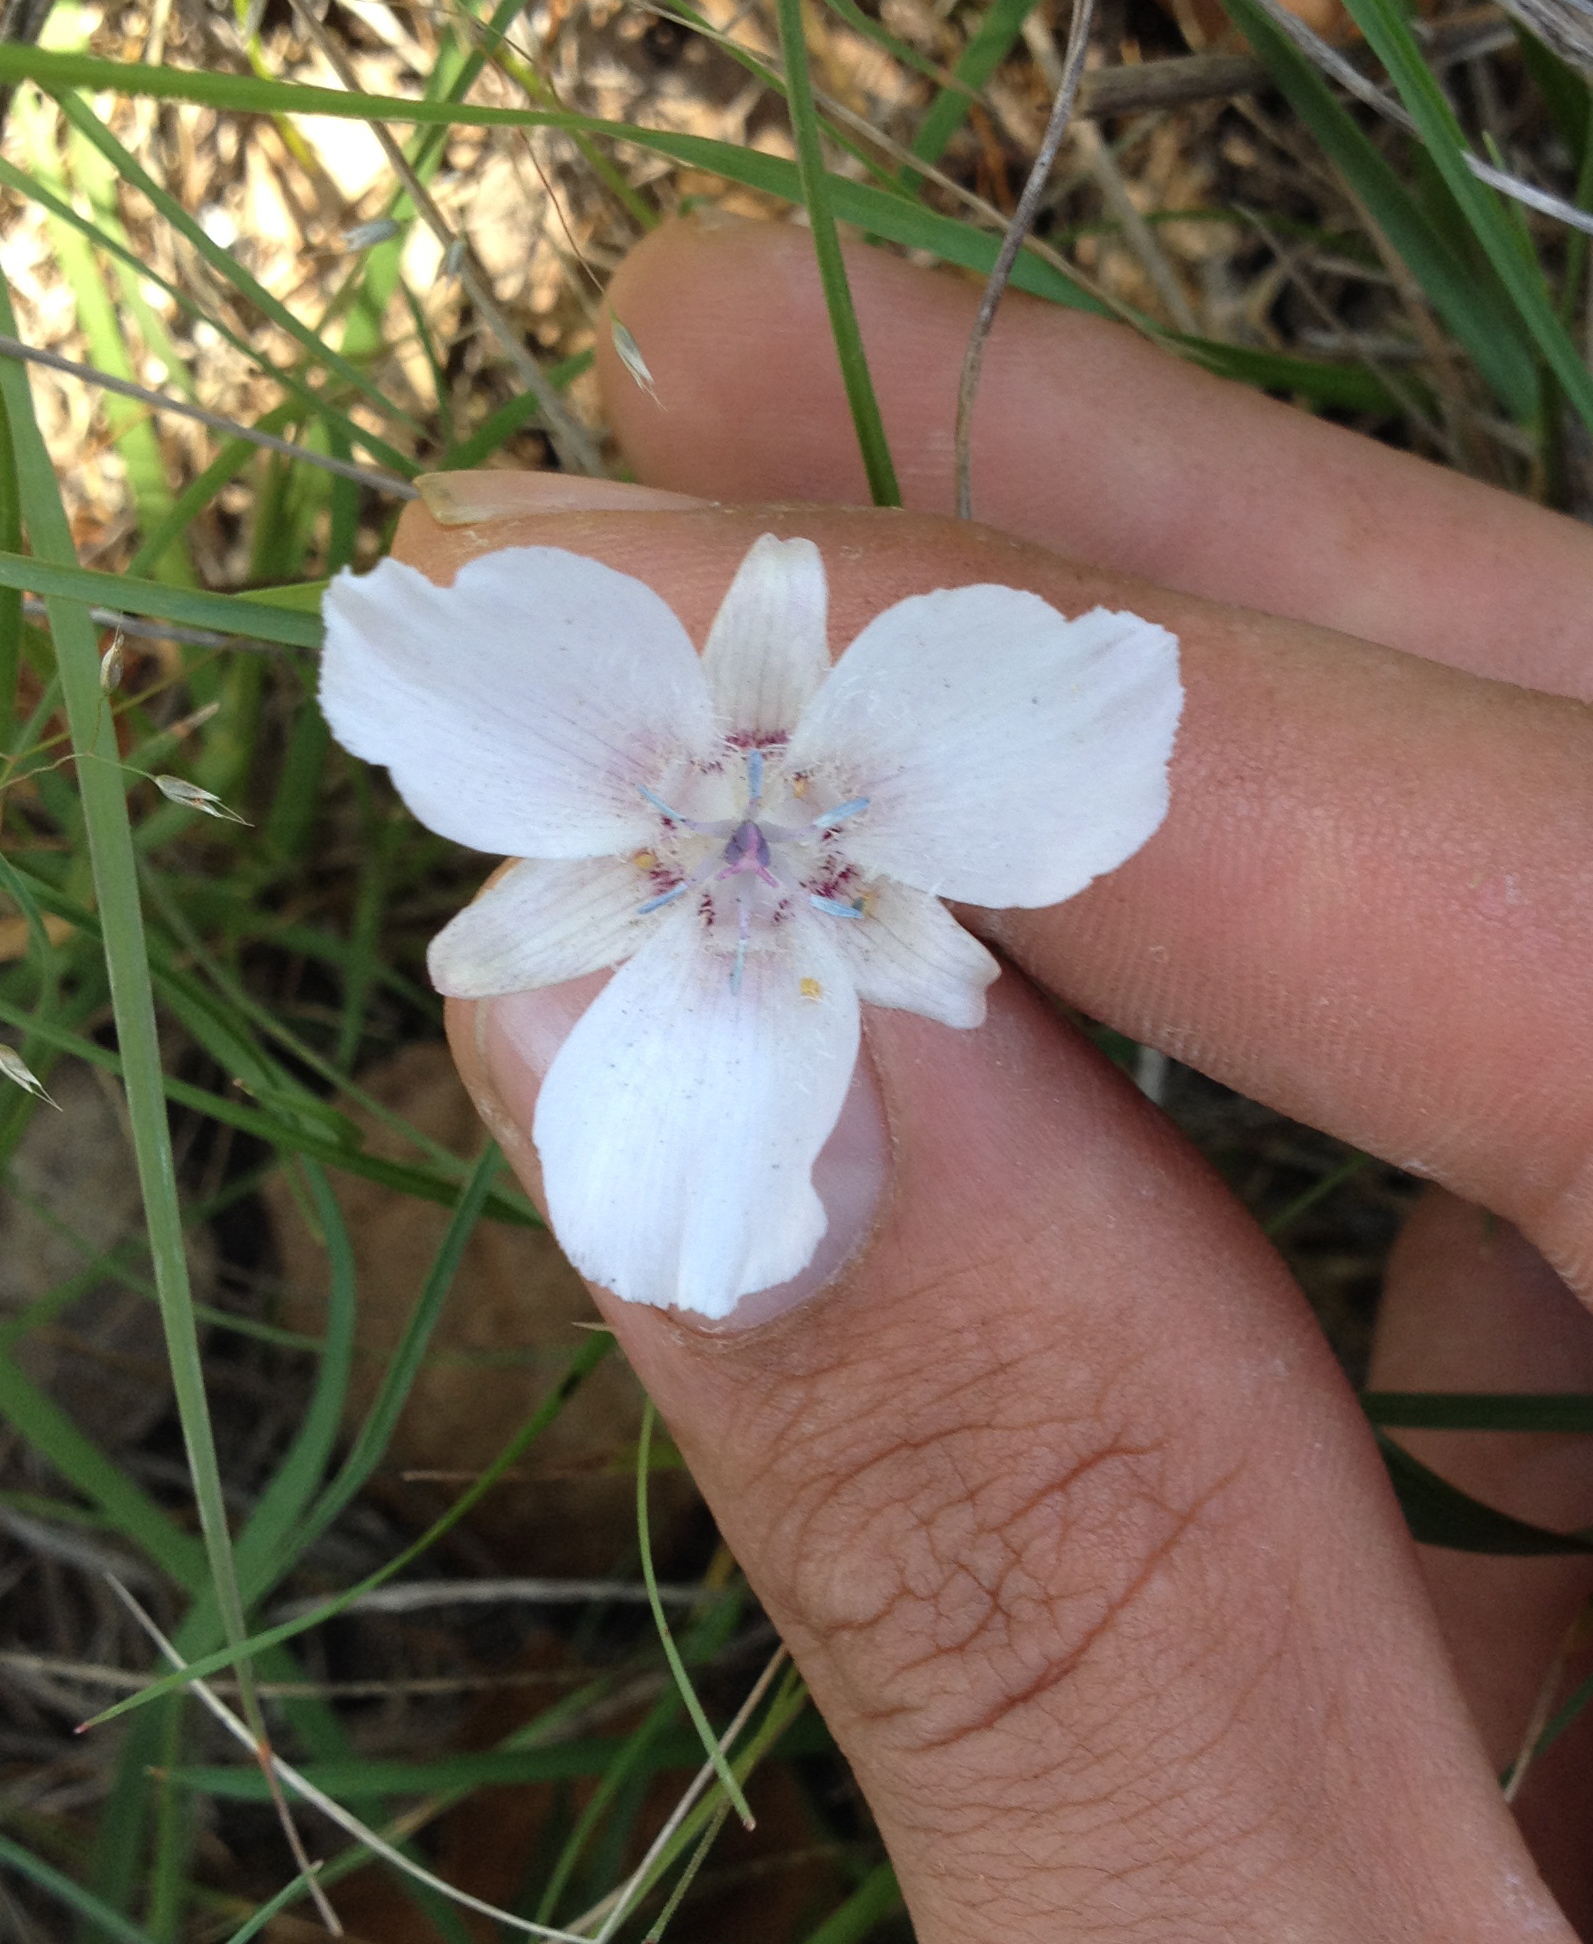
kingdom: Plantae
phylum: Tracheophyta
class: Liliopsida
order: Liliales
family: Liliaceae
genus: Calochortus
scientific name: Calochortus umbellatus
